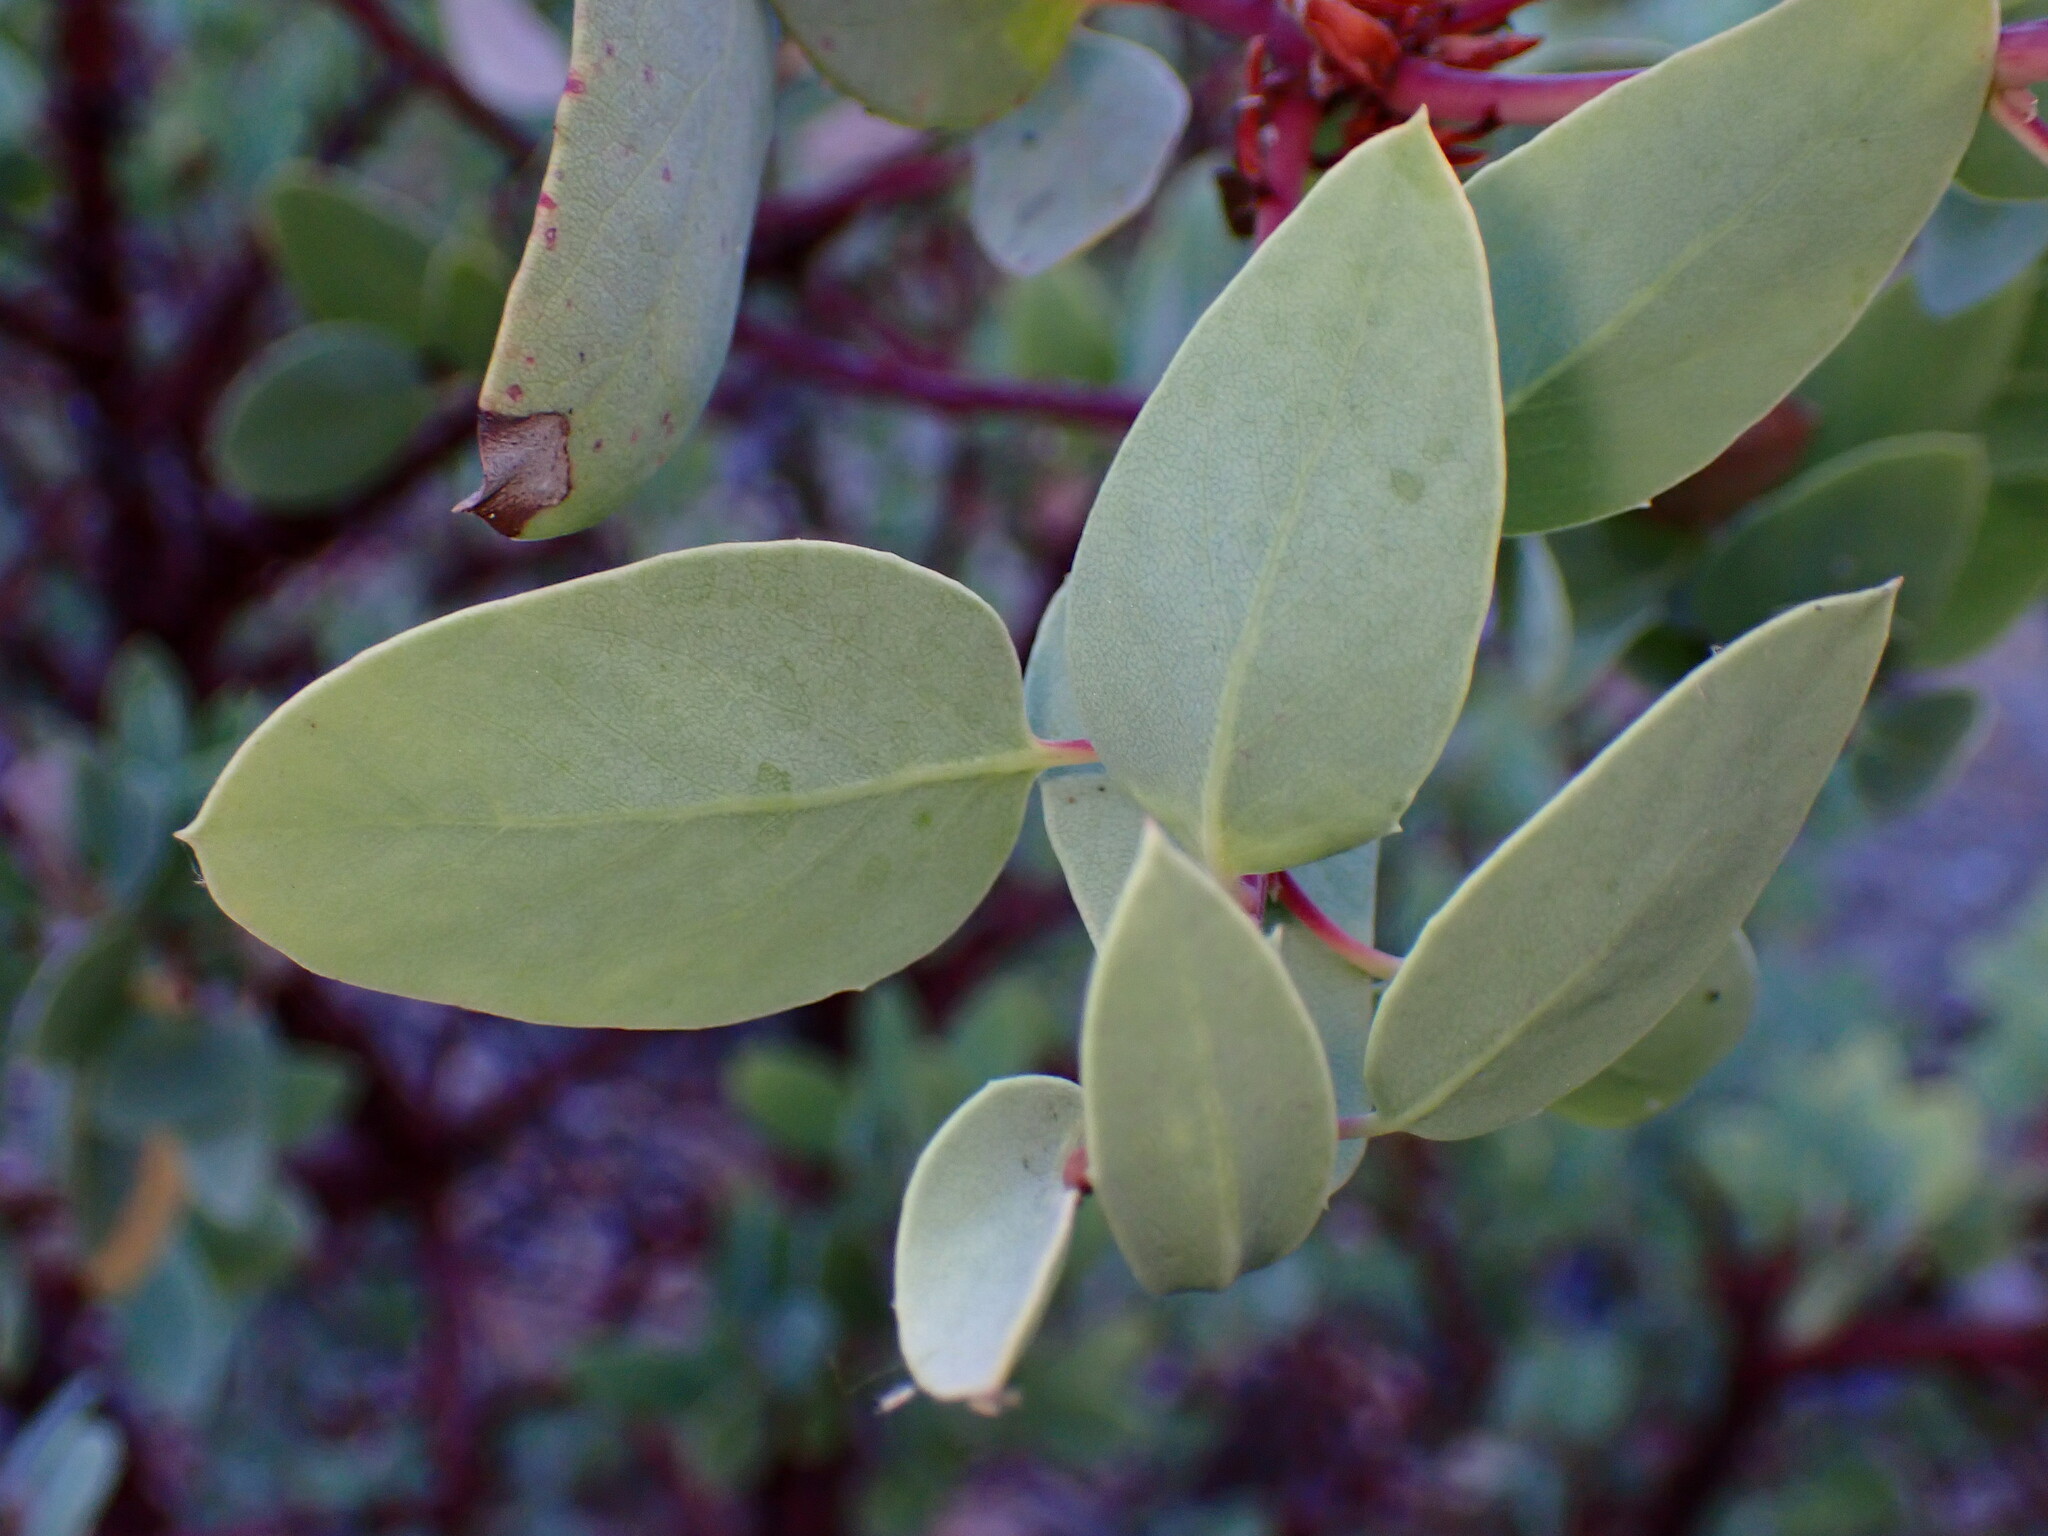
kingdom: Plantae
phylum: Tracheophyta
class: Magnoliopsida
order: Ericales
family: Ericaceae
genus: Arctostaphylos
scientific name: Arctostaphylos glauca
